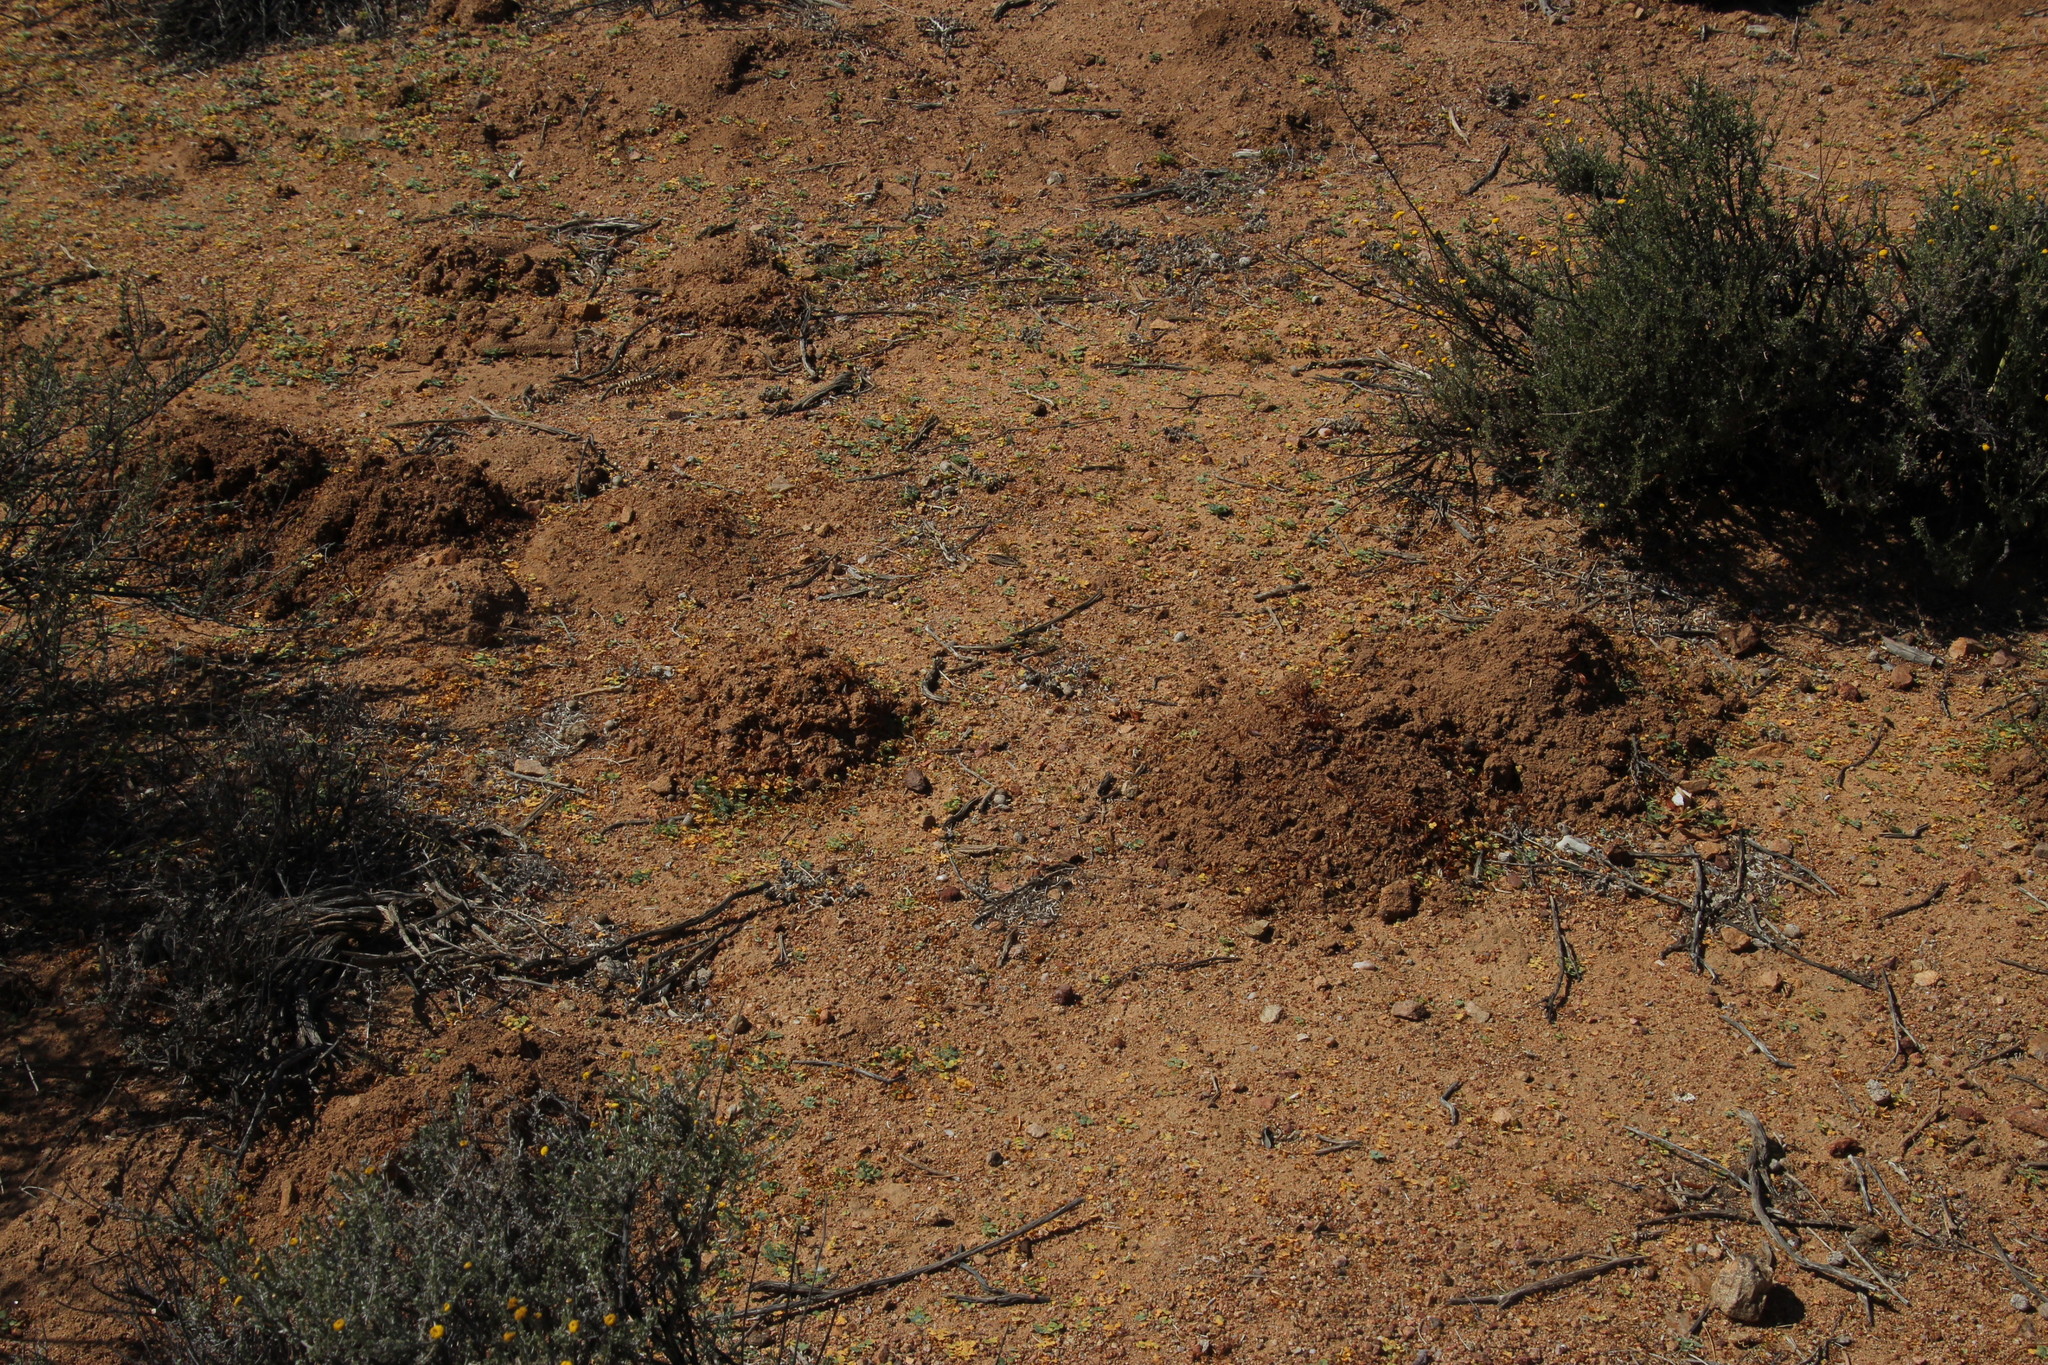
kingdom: Animalia
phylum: Chordata
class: Mammalia
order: Rodentia
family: Bathyergidae
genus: Cryptomys
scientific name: Cryptomys hottentotus
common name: Southern african mole-rat
